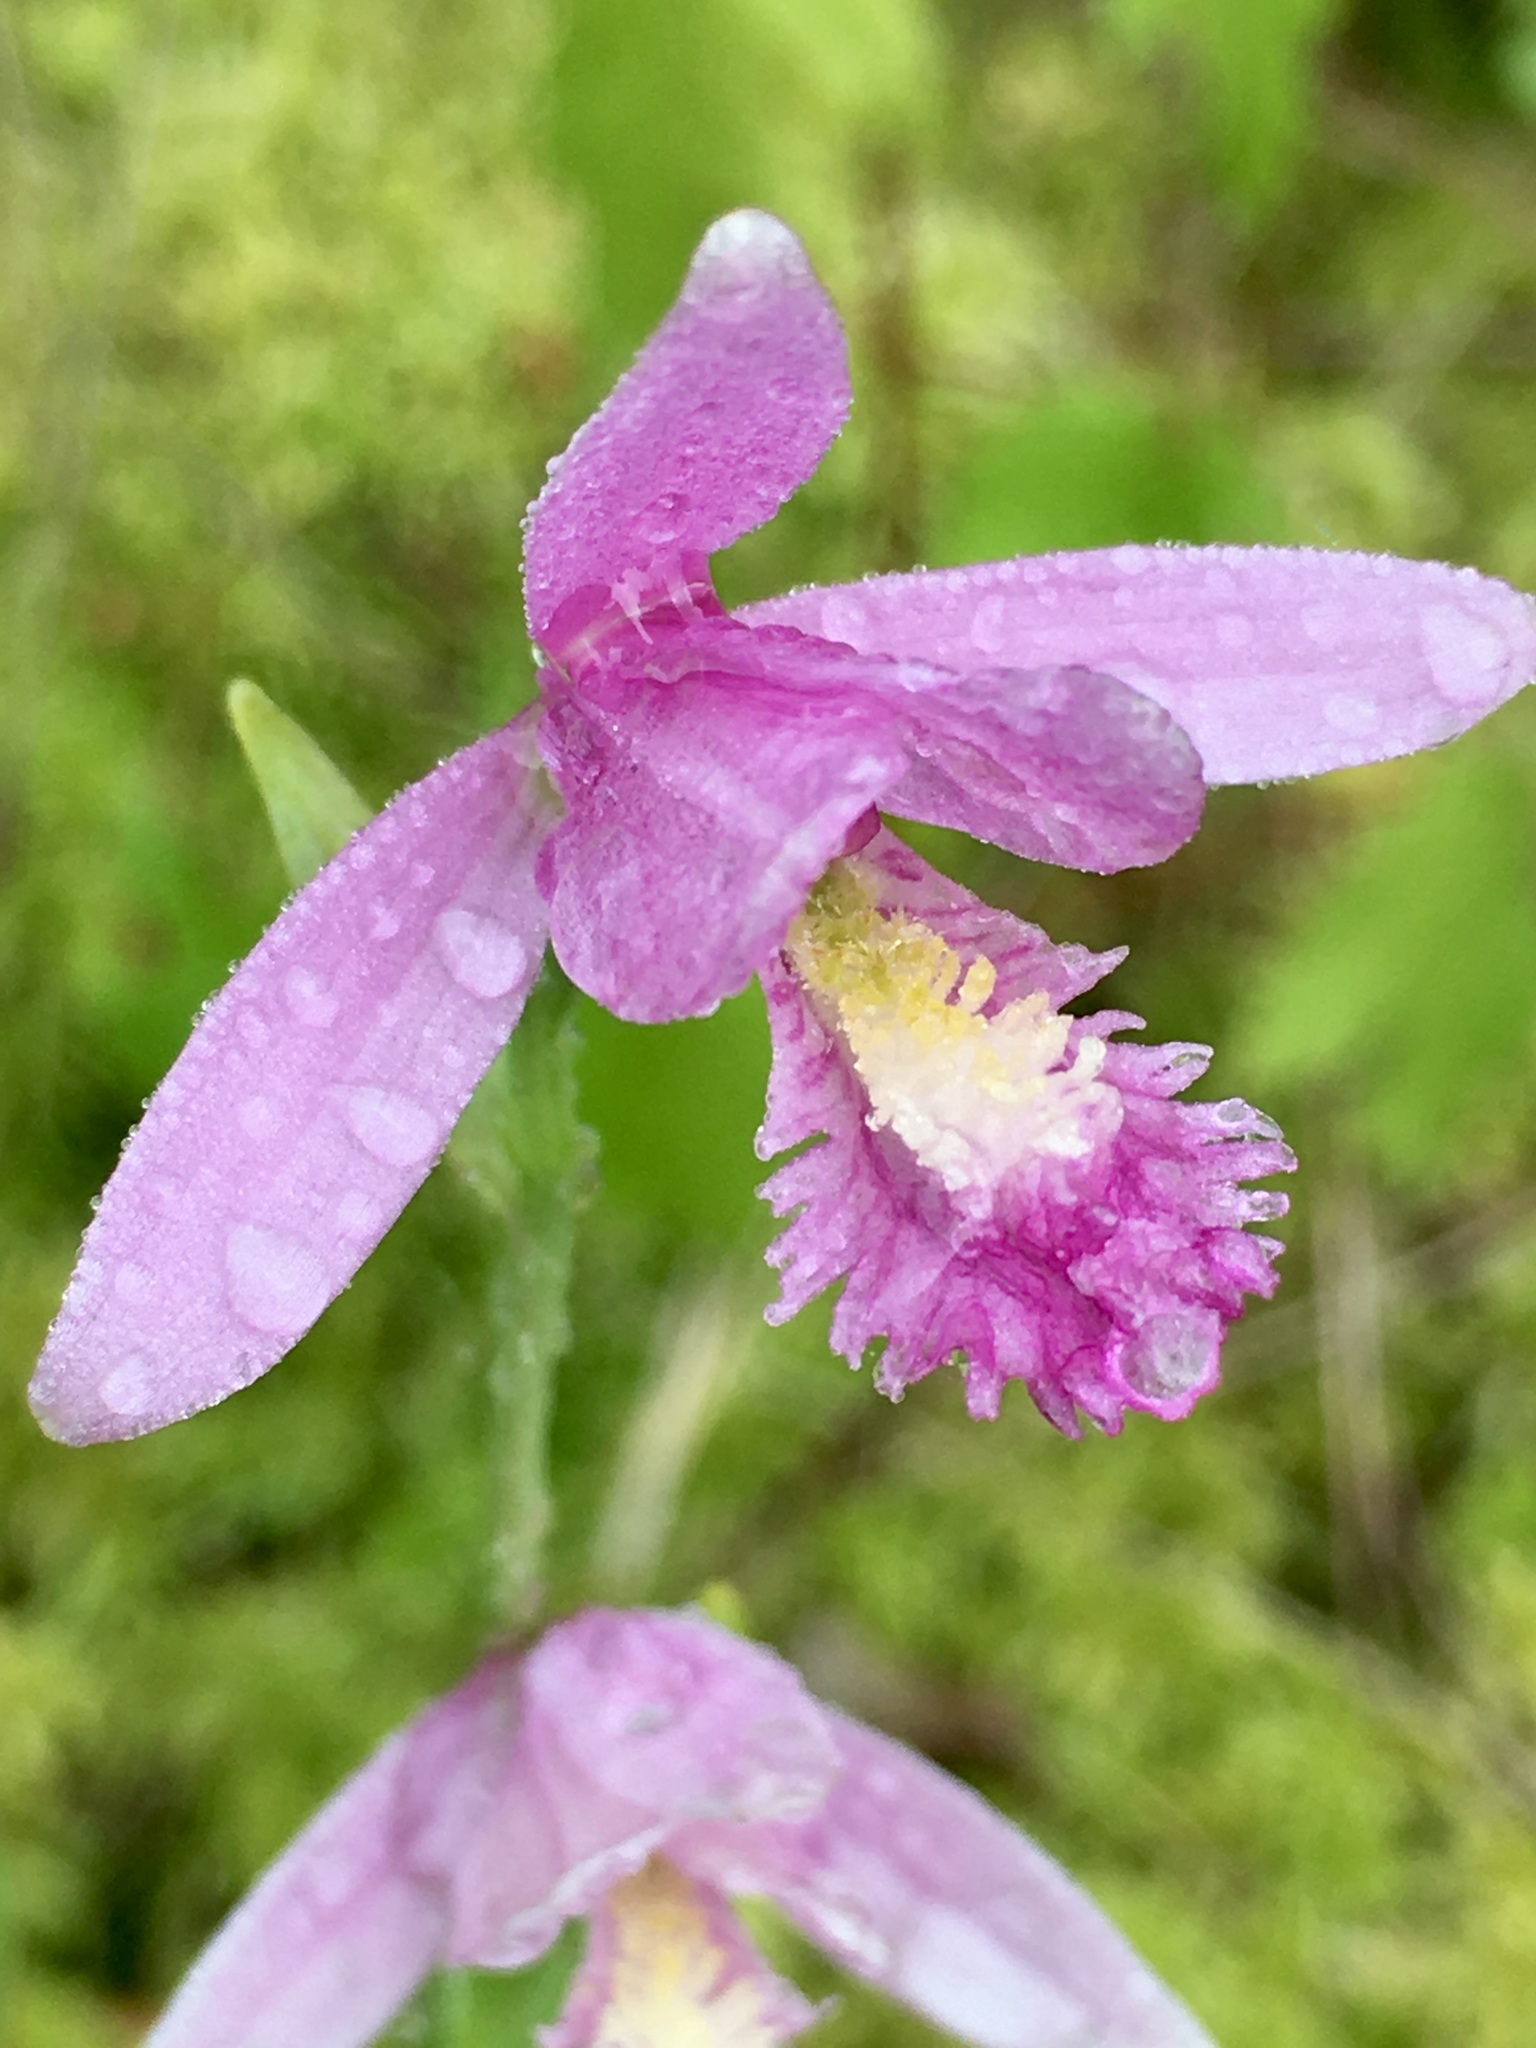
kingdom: Plantae
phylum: Tracheophyta
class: Liliopsida
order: Asparagales
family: Orchidaceae
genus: Pogonia
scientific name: Pogonia ophioglossoides
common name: Rose pogonia
